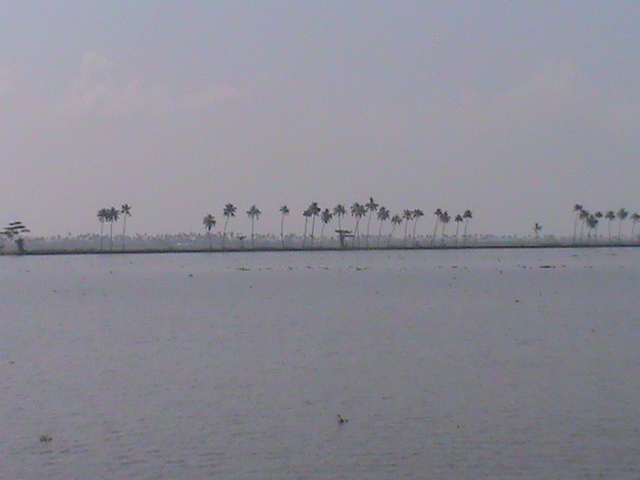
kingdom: Plantae
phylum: Tracheophyta
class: Liliopsida
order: Arecales
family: Arecaceae
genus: Cocos
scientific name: Cocos nucifera
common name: Coconut palm
